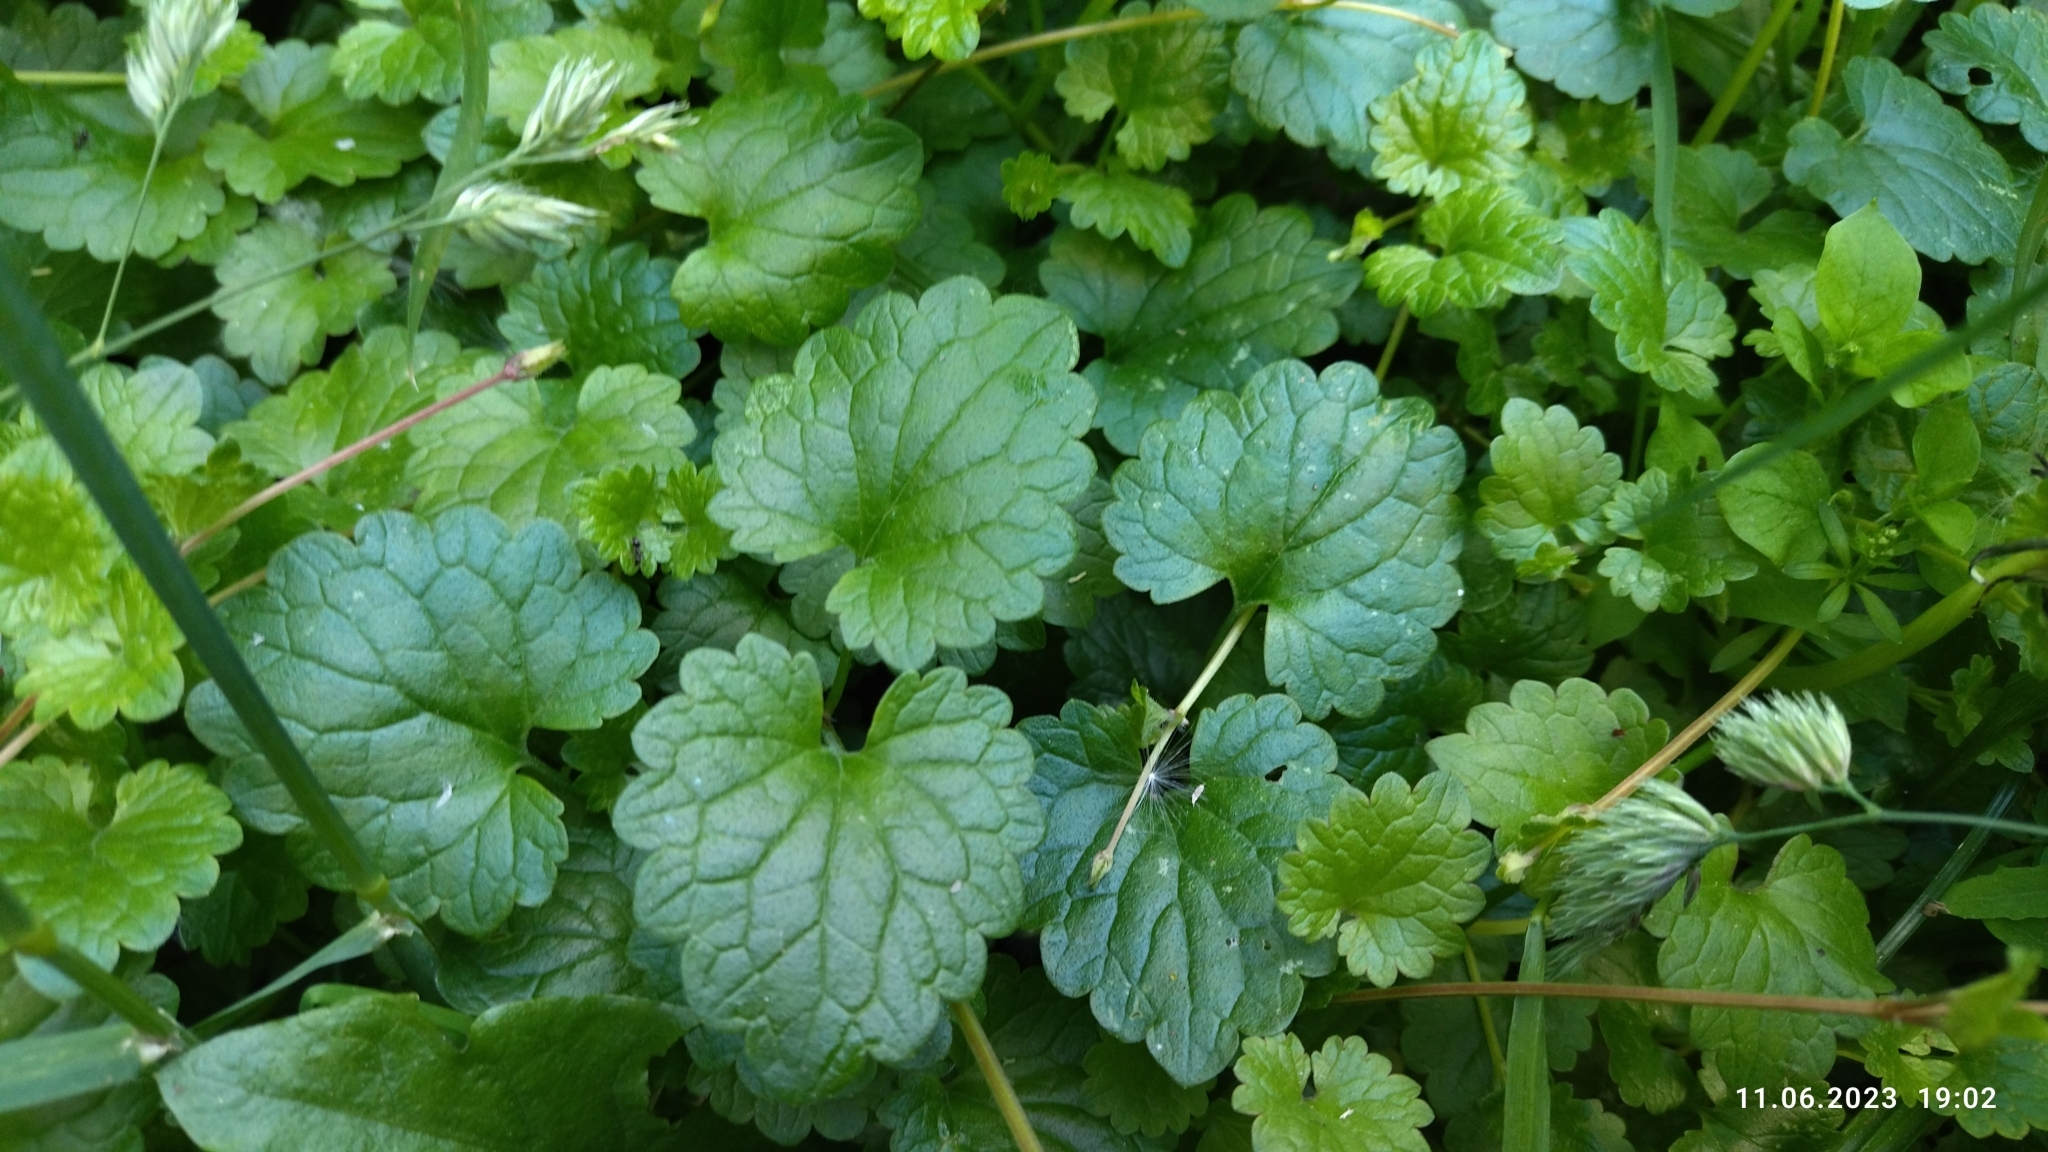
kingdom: Plantae
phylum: Tracheophyta
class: Magnoliopsida
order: Lamiales
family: Lamiaceae
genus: Glechoma
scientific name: Glechoma hederacea
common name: Ground ivy
